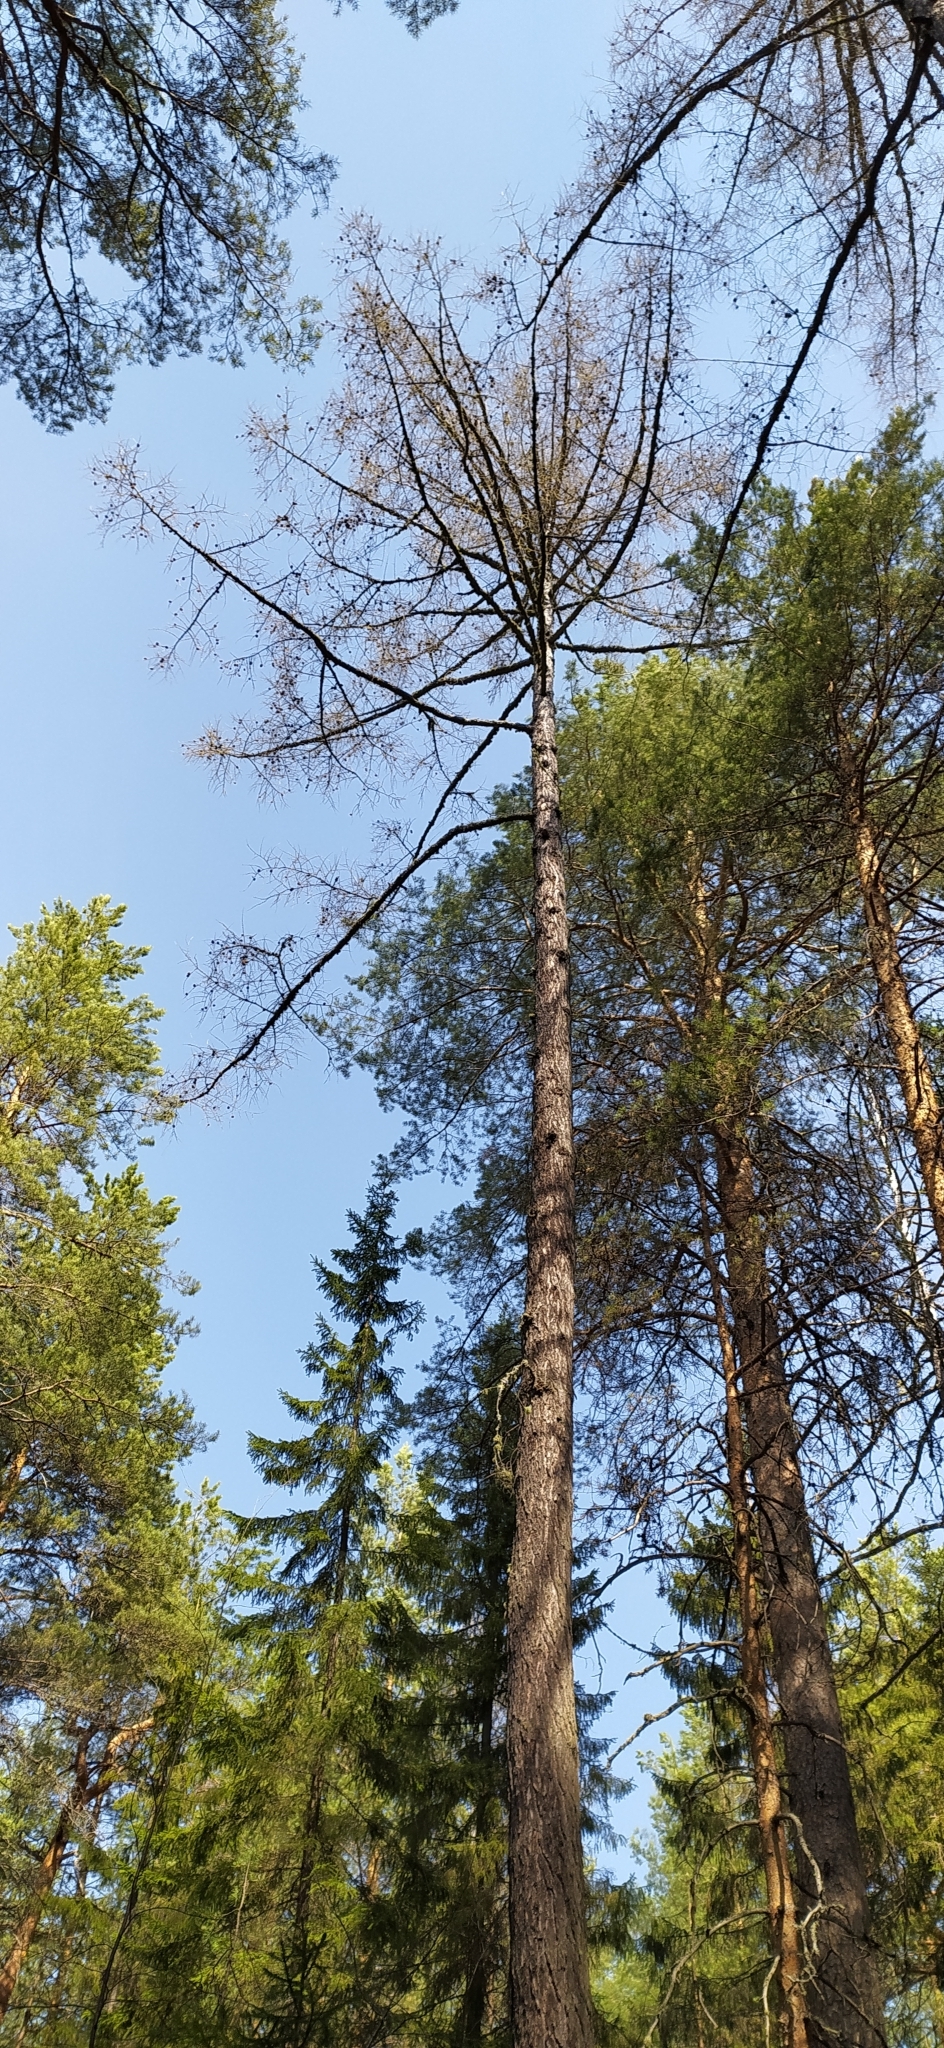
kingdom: Plantae
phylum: Tracheophyta
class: Pinopsida
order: Pinales
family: Pinaceae
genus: Larix
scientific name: Larix sibirica
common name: Siberian larch
